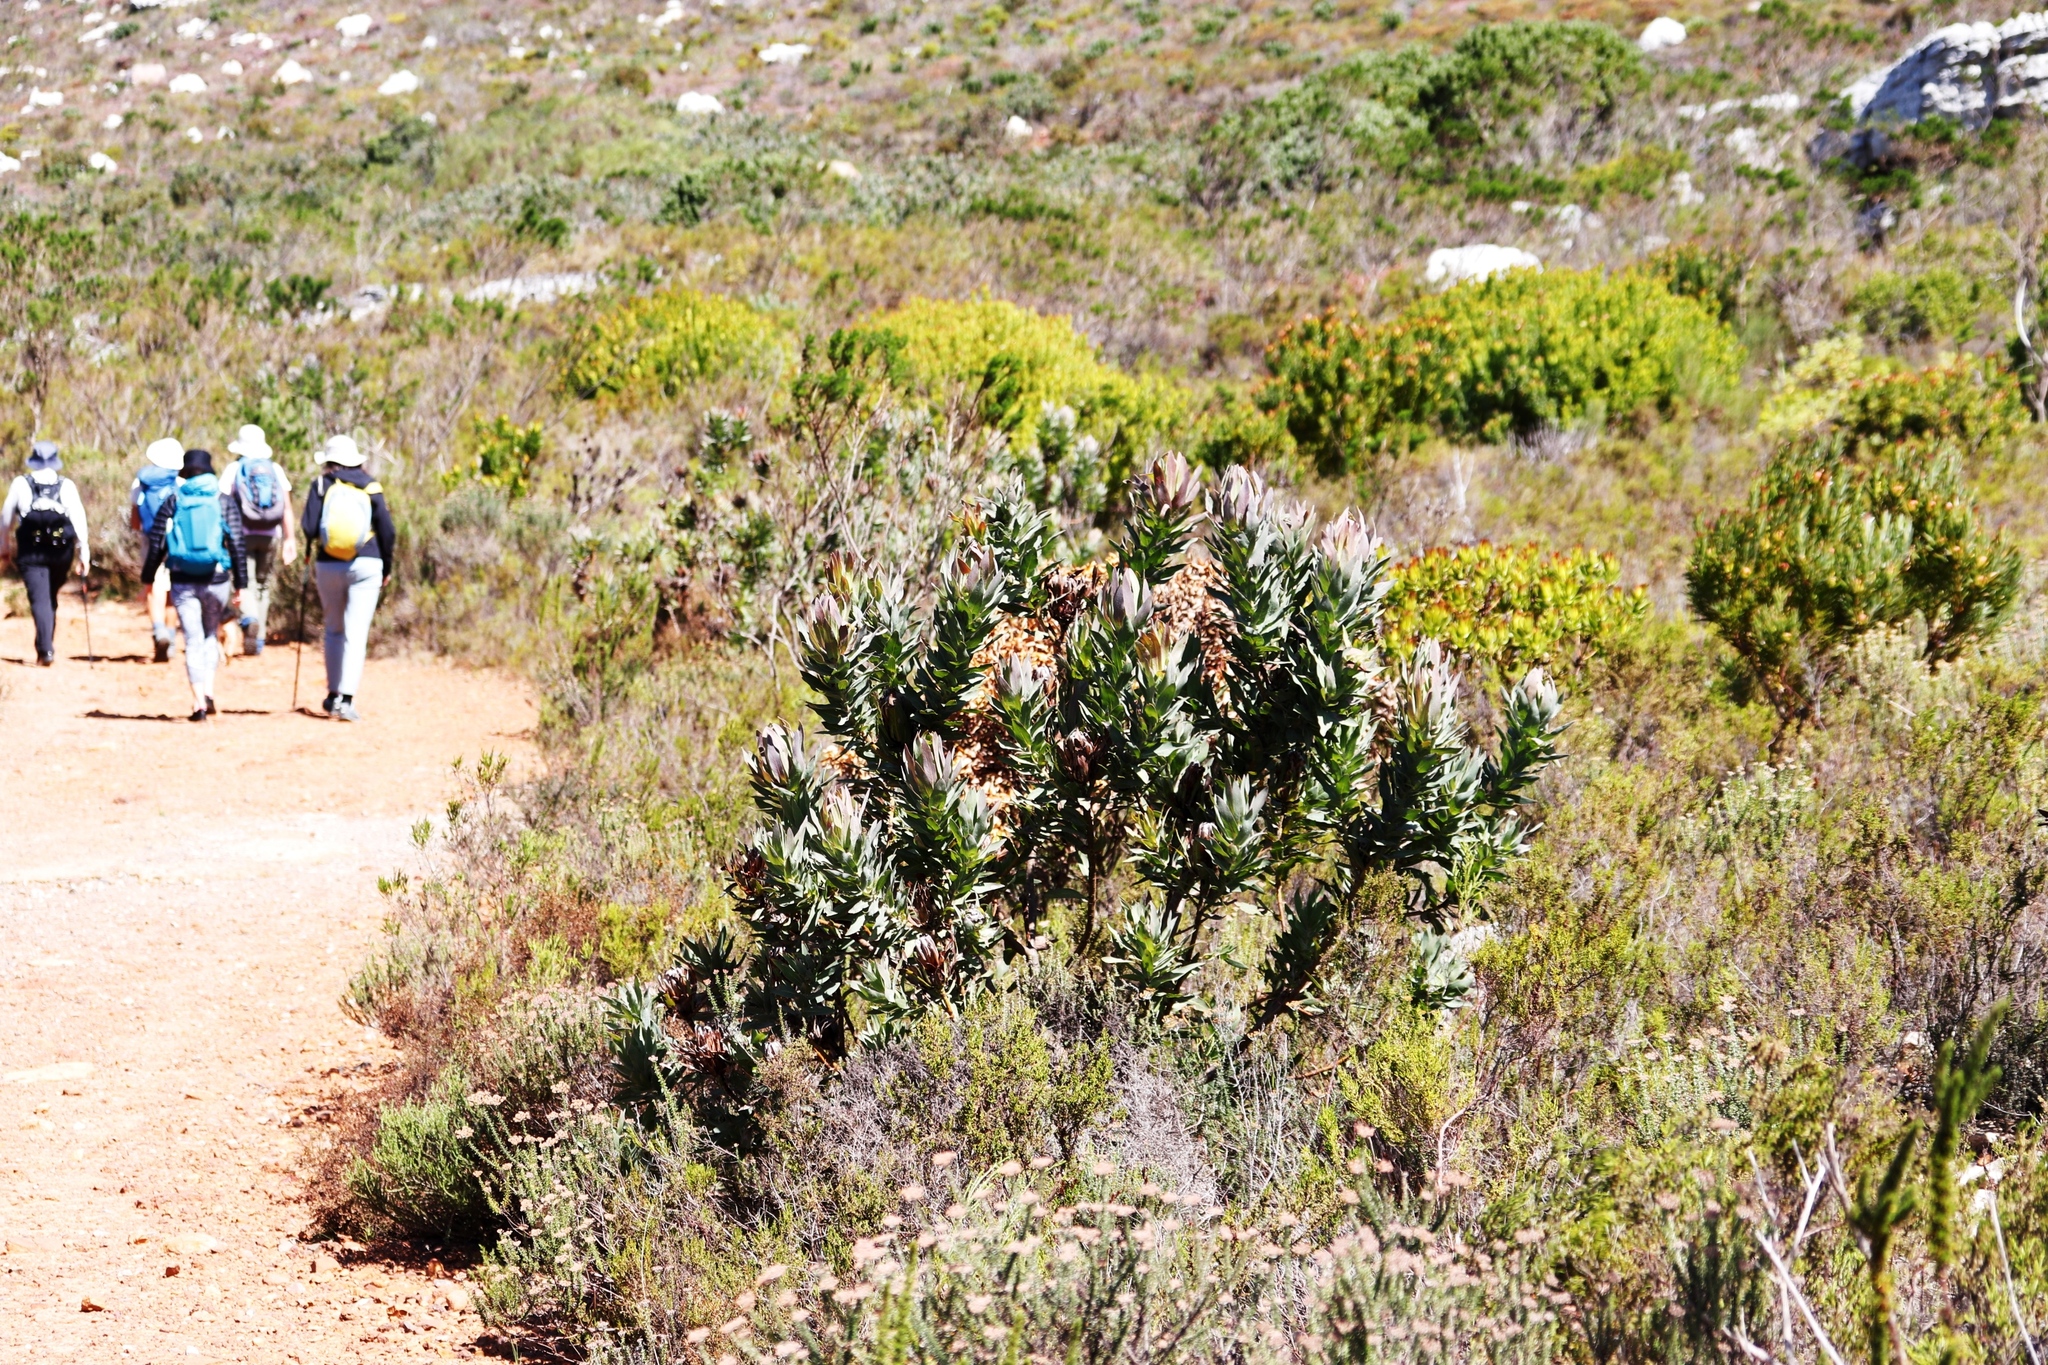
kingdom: Plantae
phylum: Tracheophyta
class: Magnoliopsida
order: Proteales
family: Proteaceae
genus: Protea
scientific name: Protea coronata
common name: Green sugarbush
